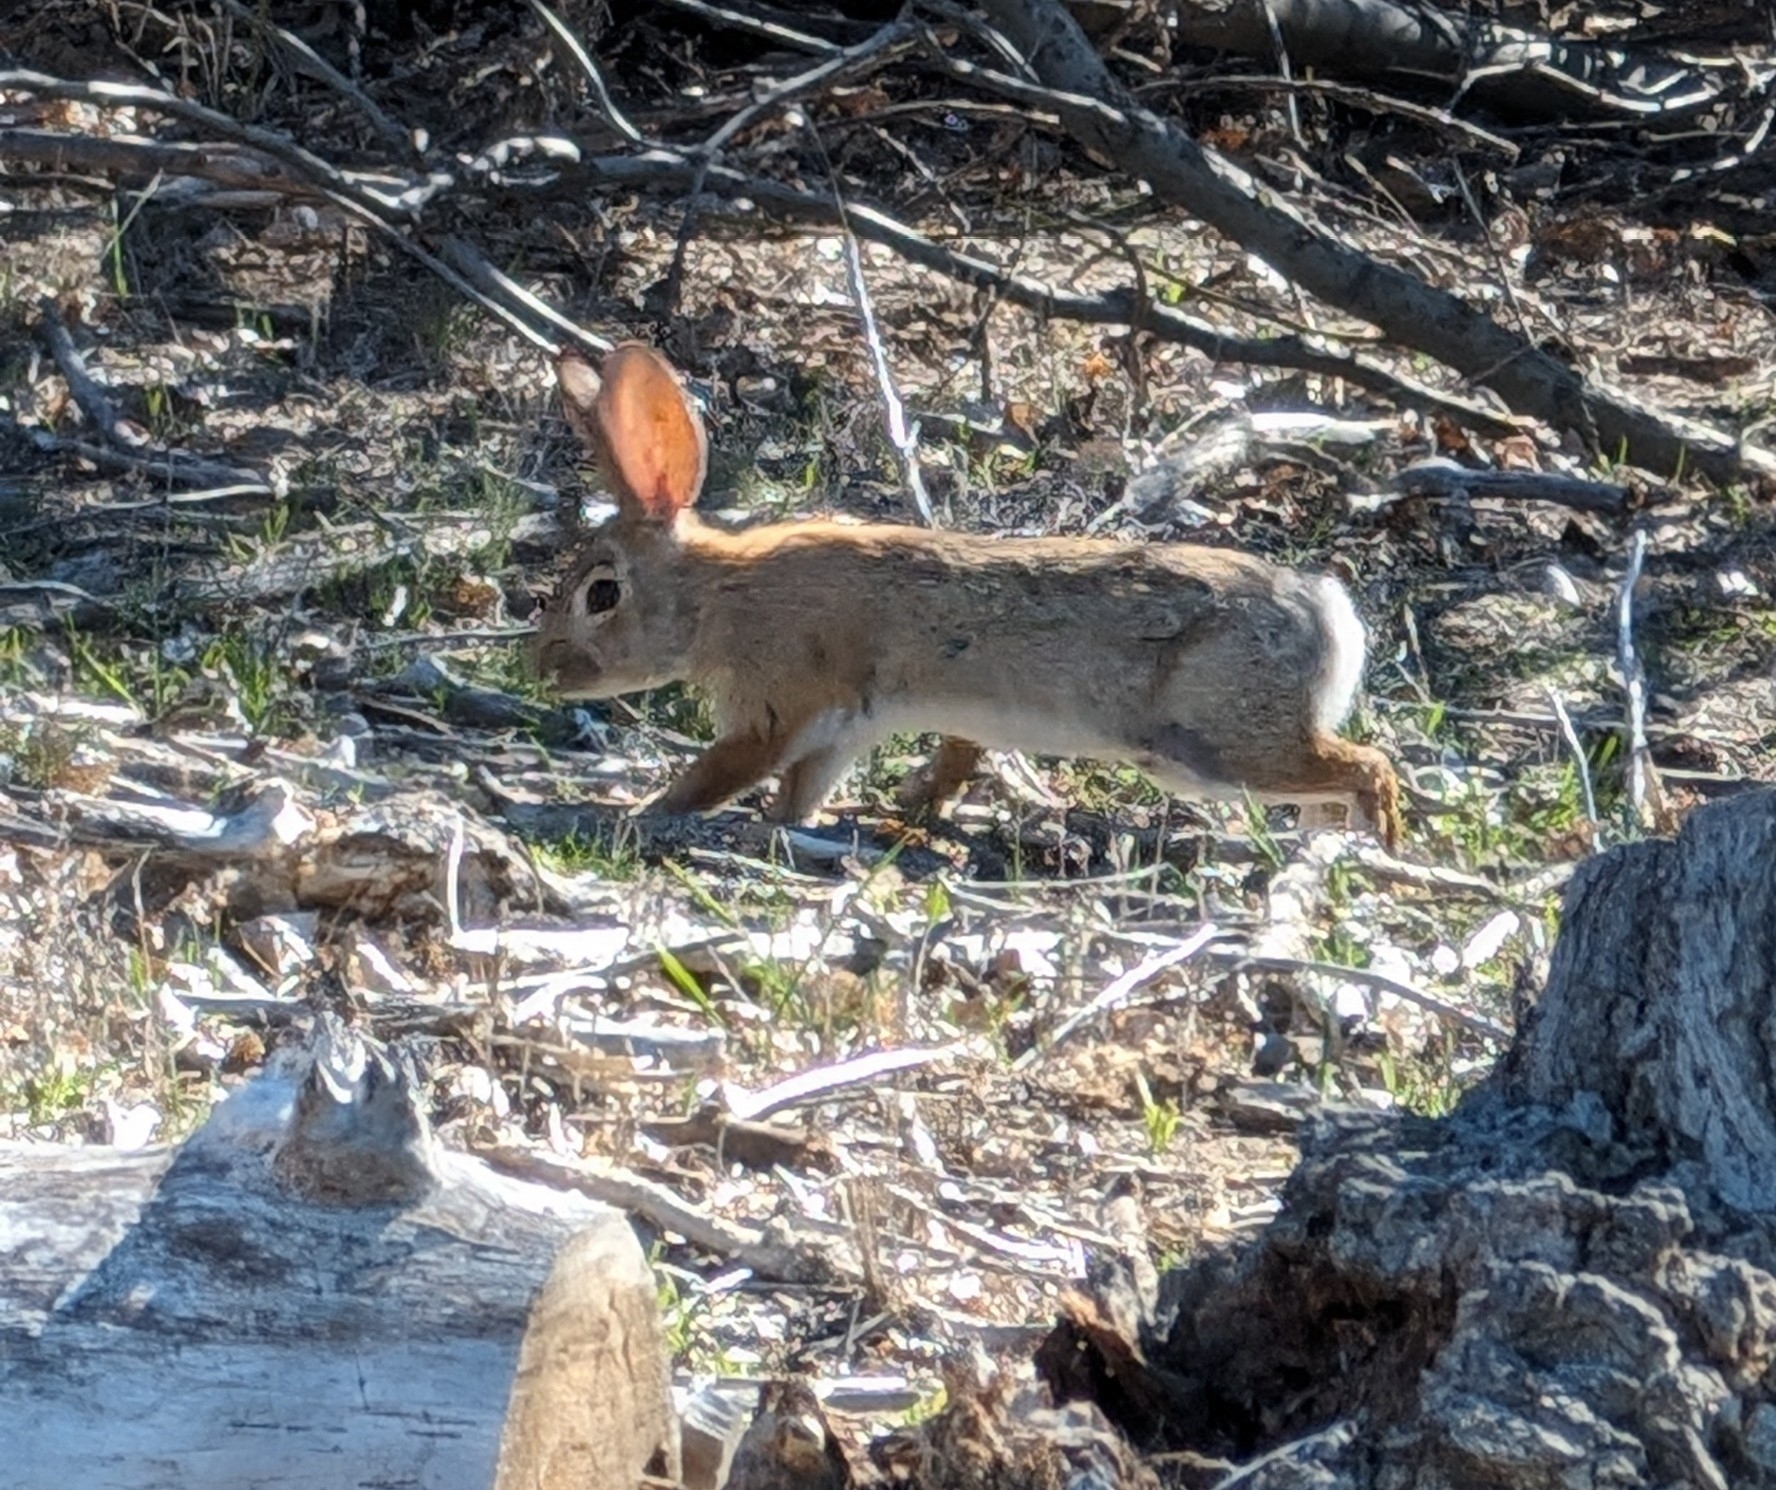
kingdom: Animalia
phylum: Chordata
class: Mammalia
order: Lagomorpha
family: Leporidae
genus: Sylvilagus
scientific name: Sylvilagus audubonii
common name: Desert cottontail
